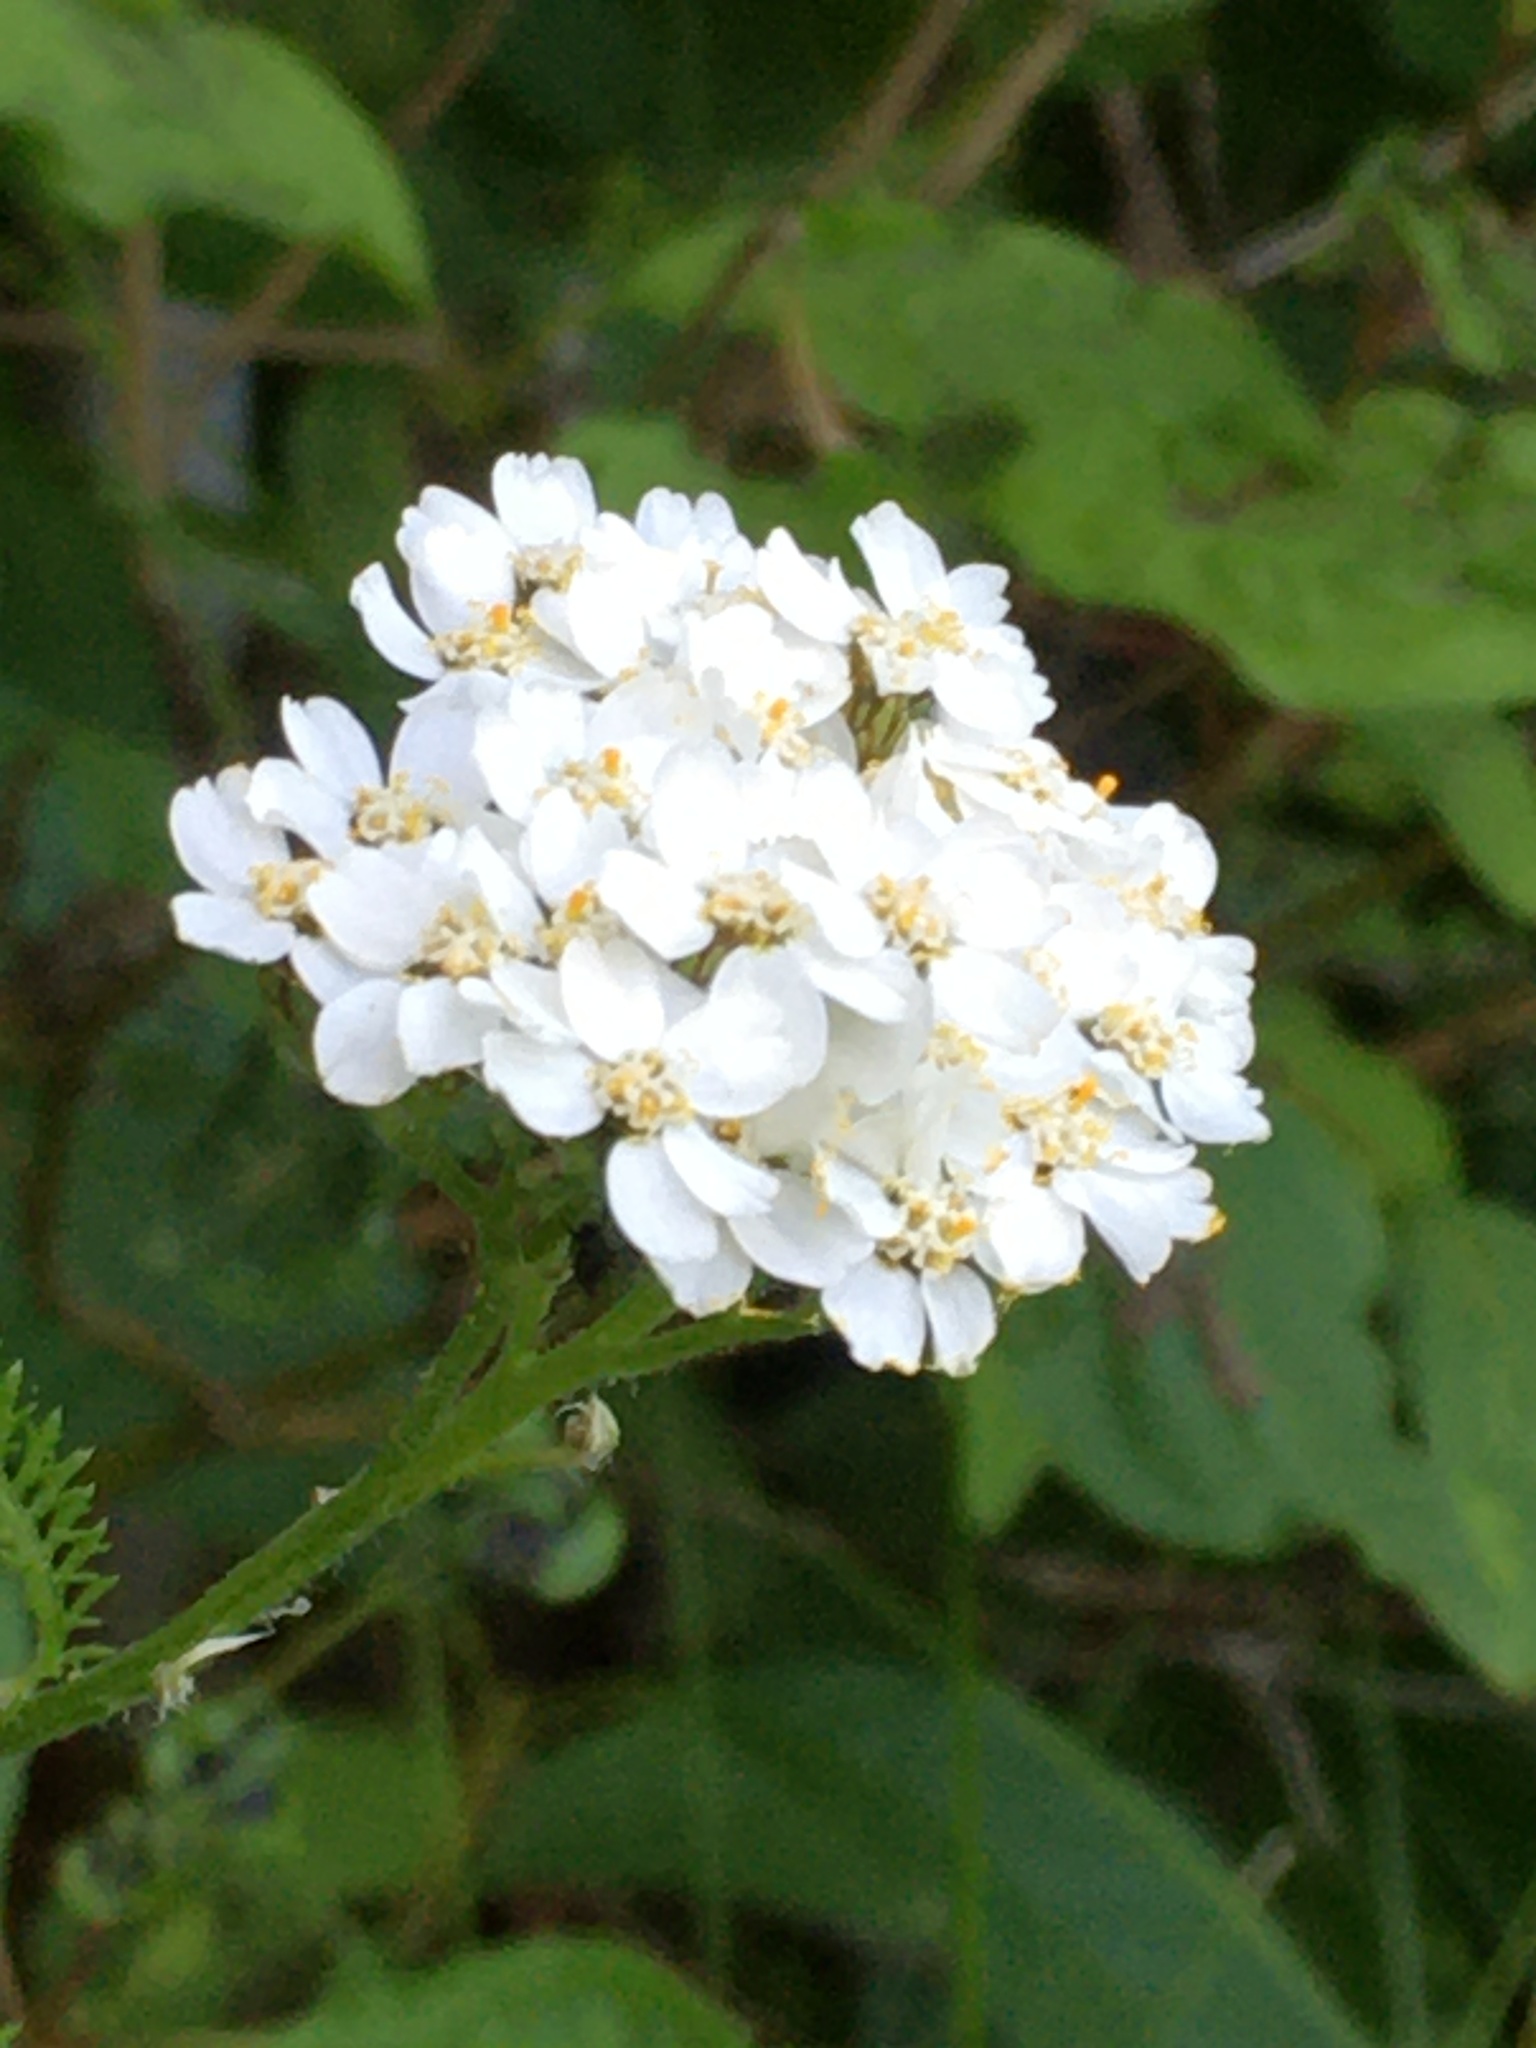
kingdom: Plantae
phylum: Tracheophyta
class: Magnoliopsida
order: Asterales
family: Asteraceae
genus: Achillea
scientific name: Achillea millefolium
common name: Yarrow
